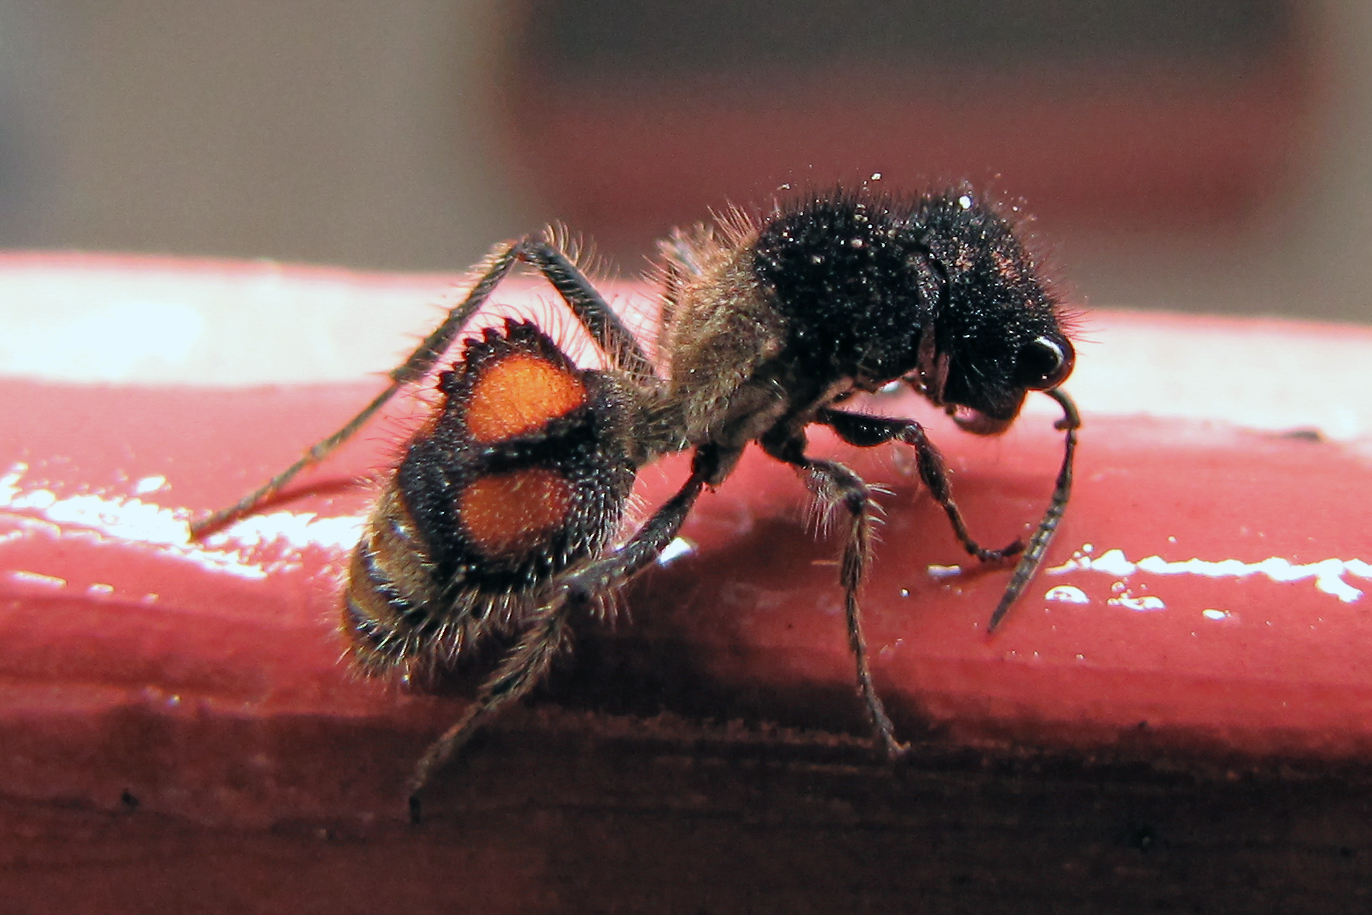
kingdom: Animalia
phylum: Arthropoda
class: Insecta
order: Hymenoptera
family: Mutillidae
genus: Lophomutilla
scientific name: Lophomutilla prionophora
